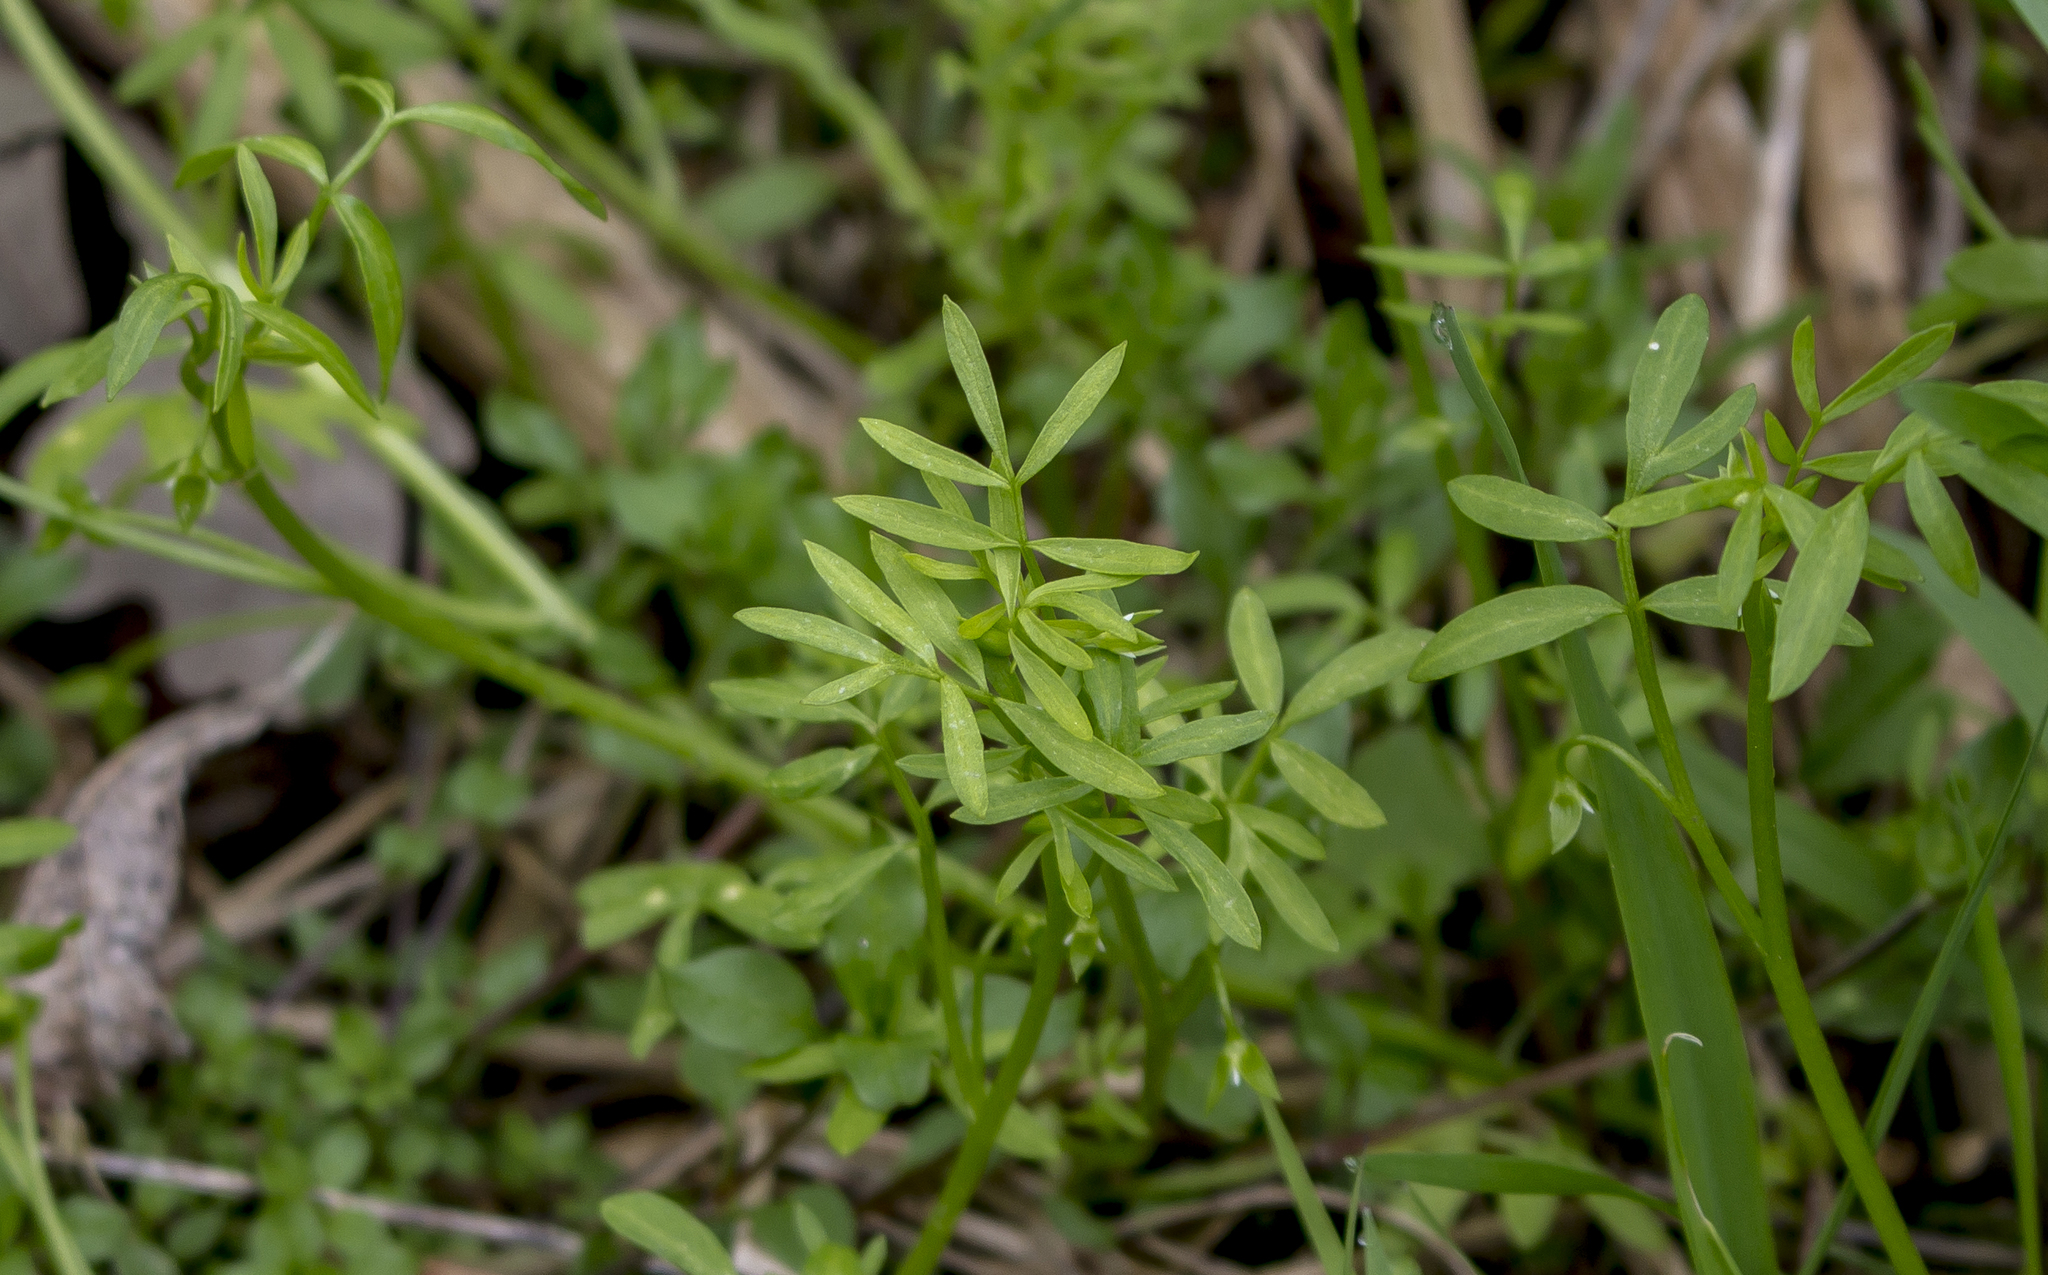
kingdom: Plantae
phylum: Tracheophyta
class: Magnoliopsida
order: Brassicales
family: Limnanthaceae
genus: Floerkea
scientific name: Floerkea proserpinacoides
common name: False mermaid
